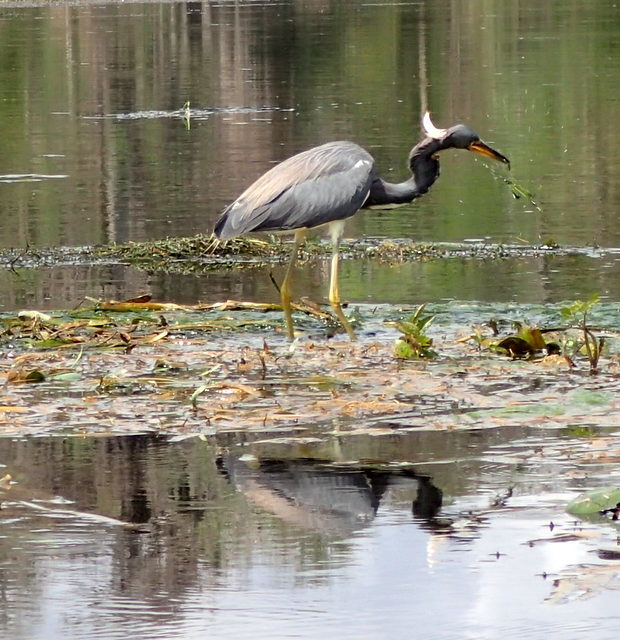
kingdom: Animalia
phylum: Chordata
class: Aves
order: Pelecaniformes
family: Ardeidae
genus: Egretta
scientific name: Egretta tricolor
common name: Tricolored heron
